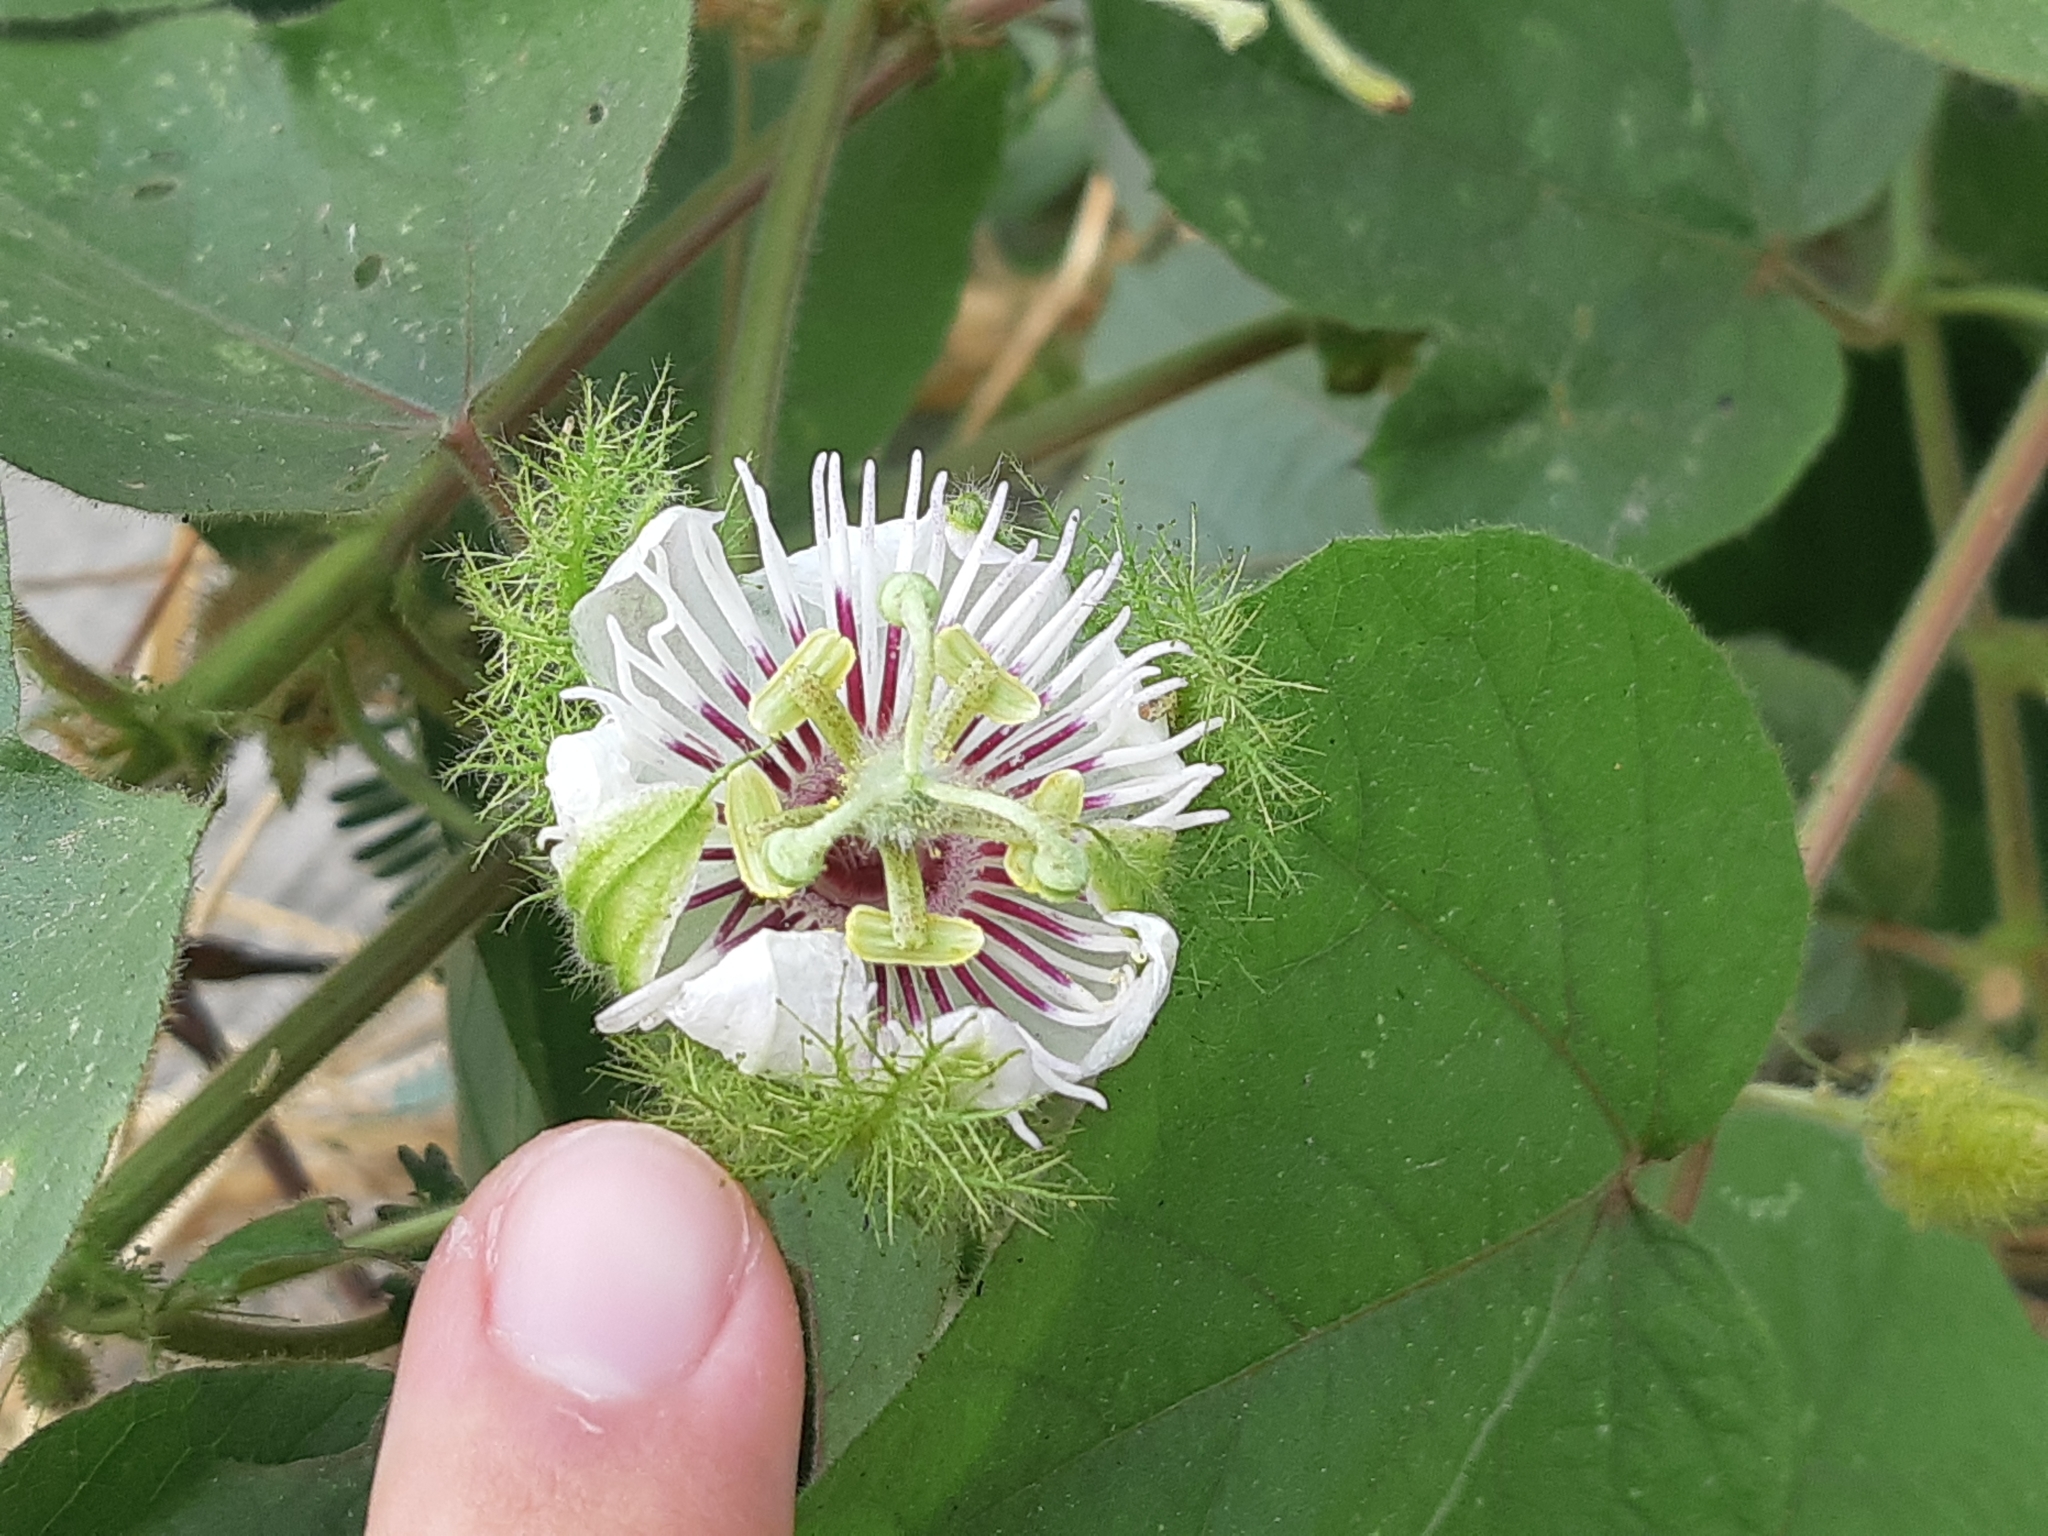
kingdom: Plantae
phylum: Tracheophyta
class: Magnoliopsida
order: Malpighiales
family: Passifloraceae
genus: Passiflora
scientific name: Passiflora foetida
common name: Fetid passionflower
